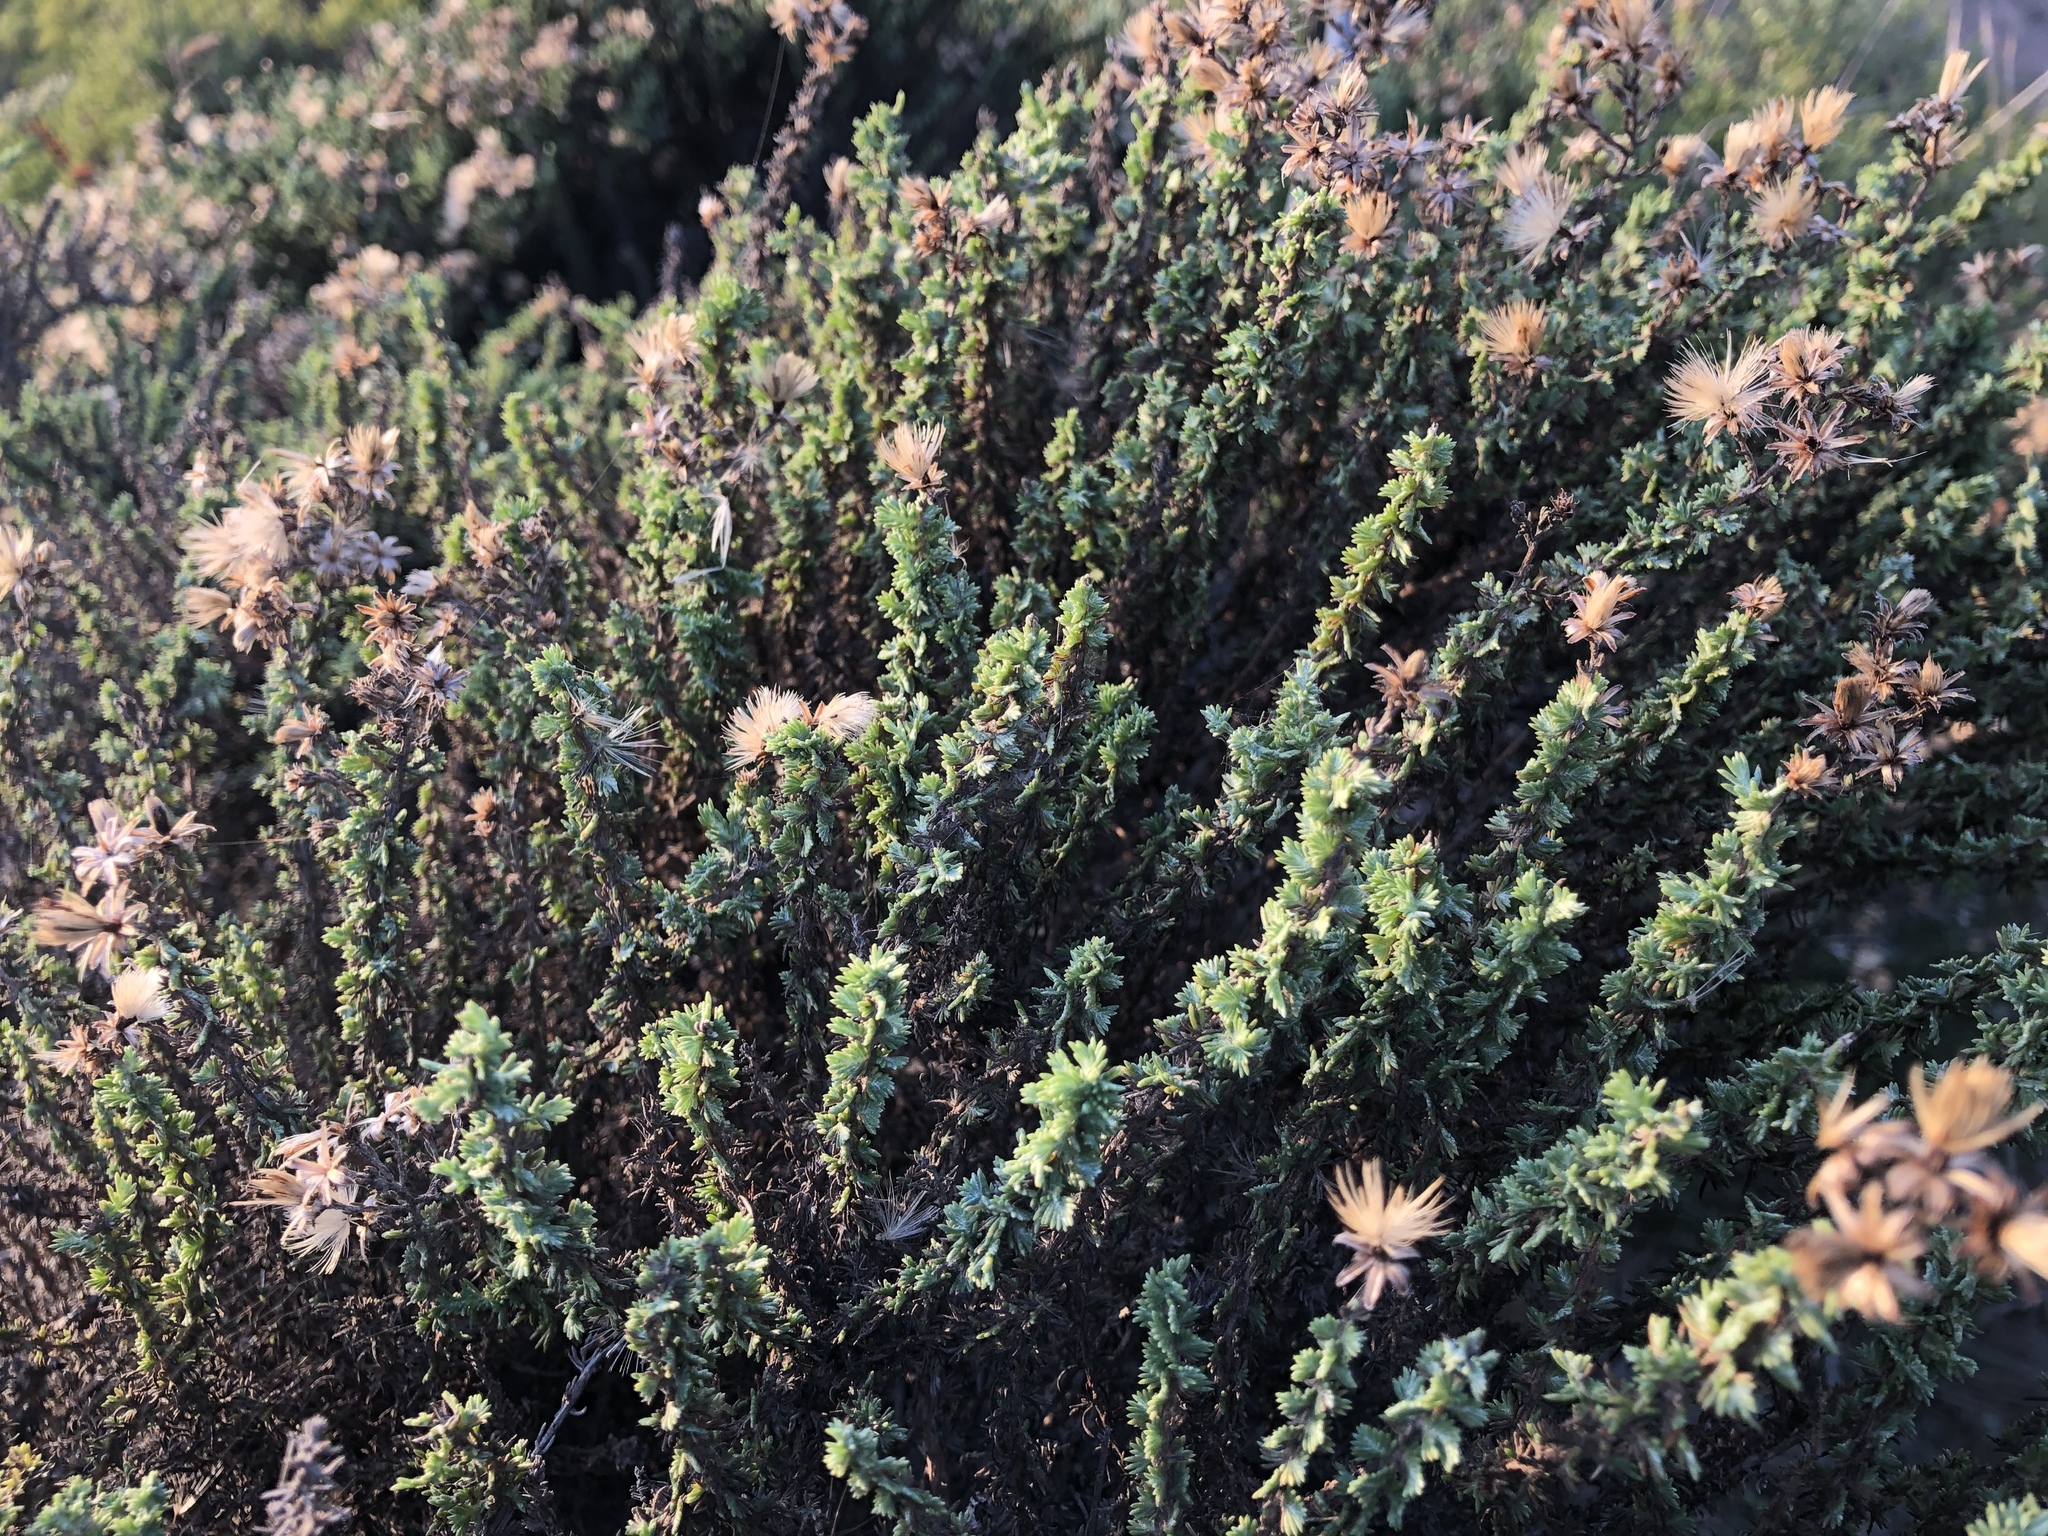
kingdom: Plantae
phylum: Tracheophyta
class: Magnoliopsida
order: Asterales
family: Asteraceae
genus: Ericameria
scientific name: Ericameria ericoides
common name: California goldenbush
